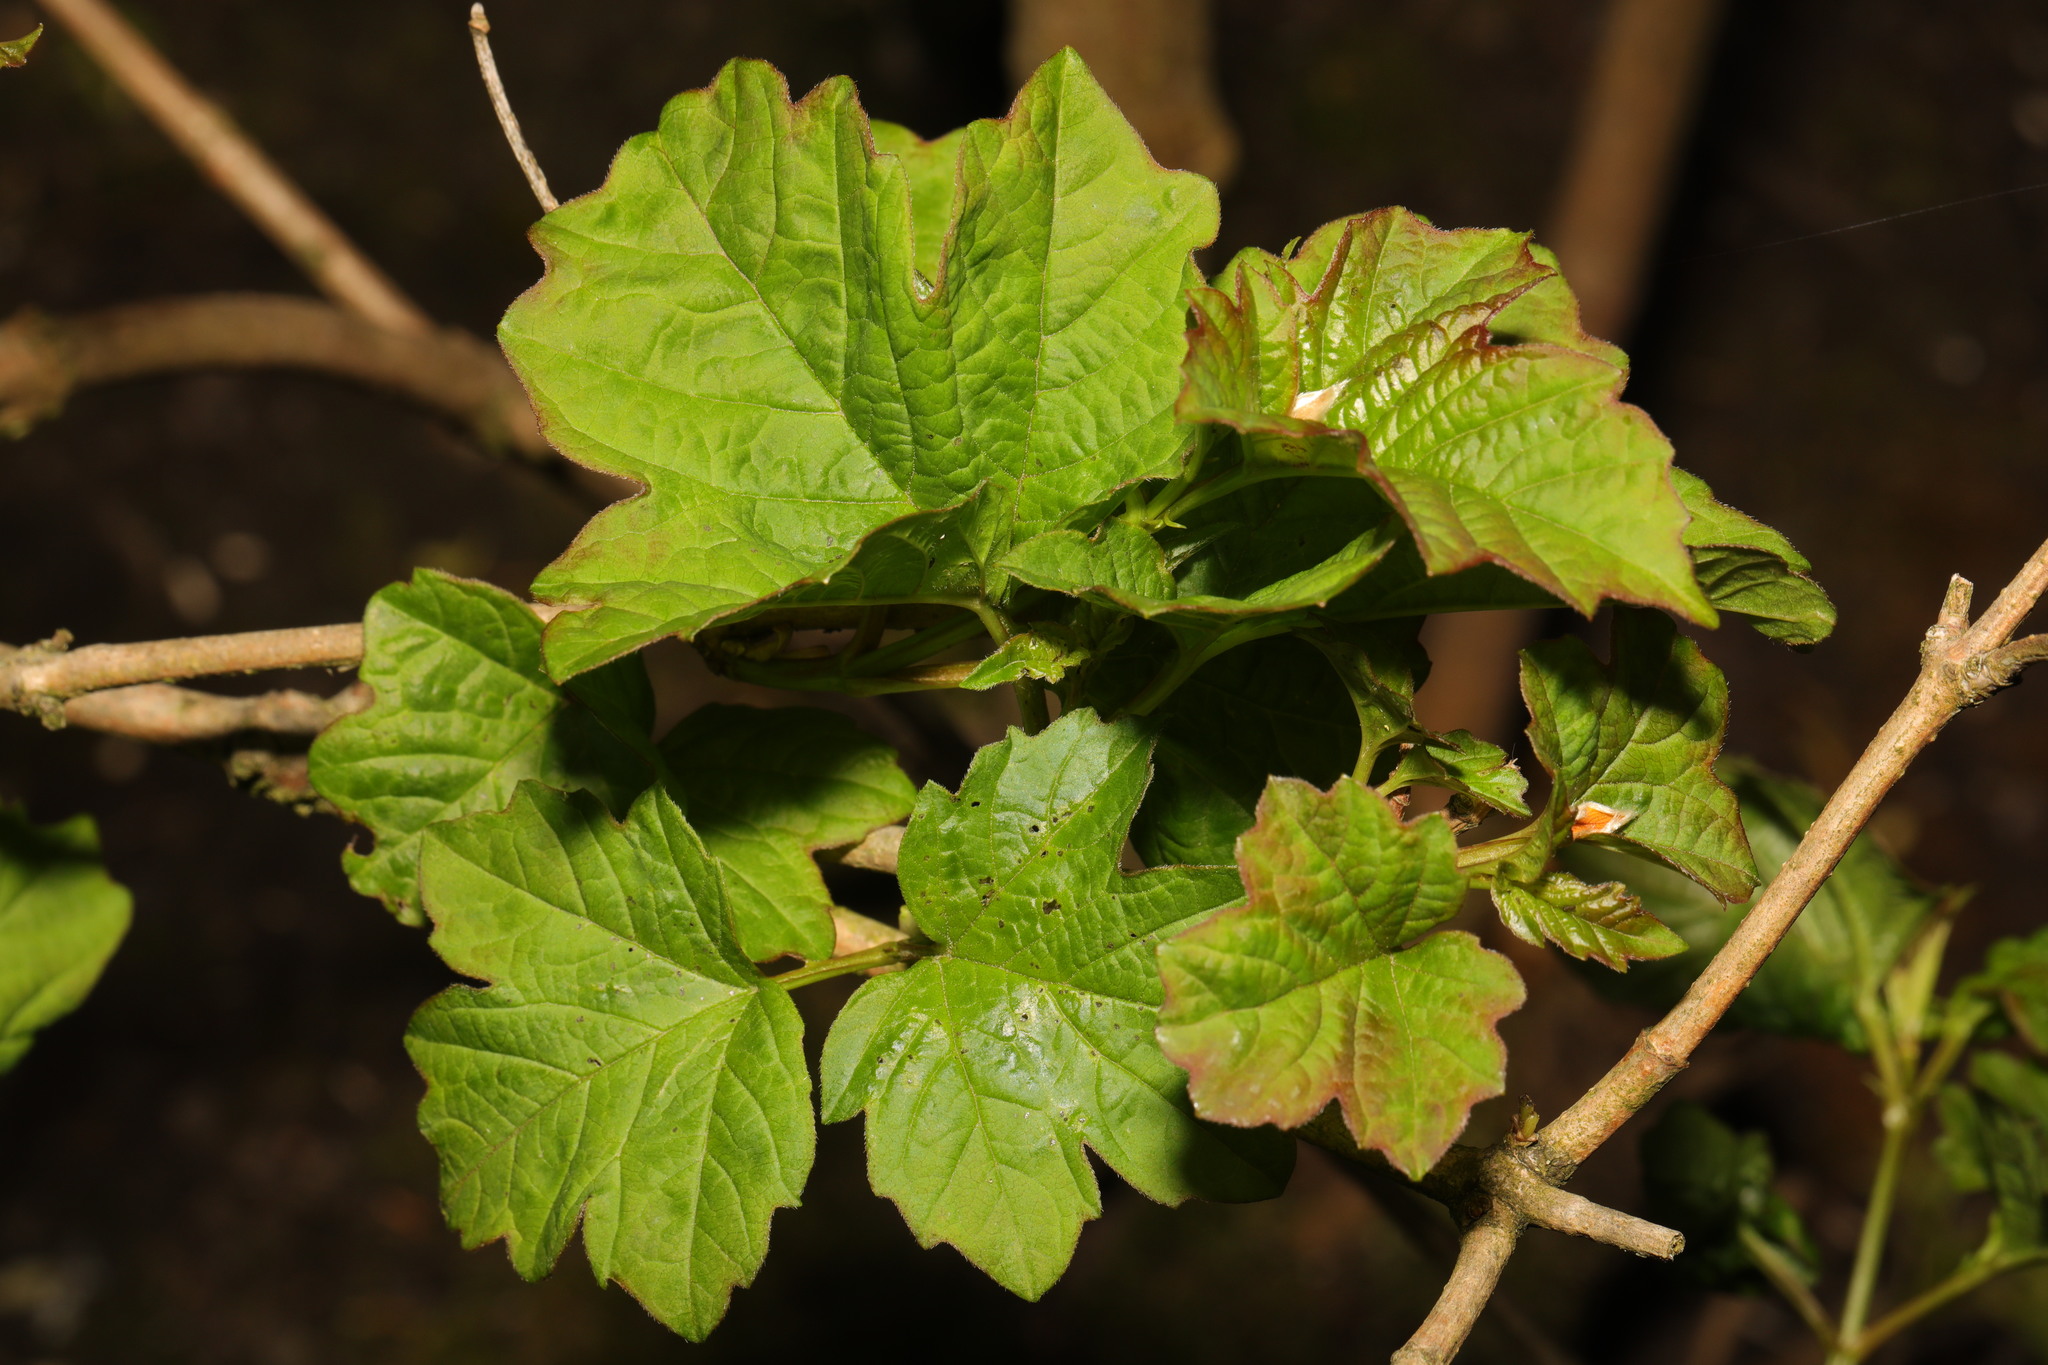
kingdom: Plantae
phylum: Tracheophyta
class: Magnoliopsida
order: Dipsacales
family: Viburnaceae
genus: Viburnum
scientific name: Viburnum opulus
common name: Guelder-rose
